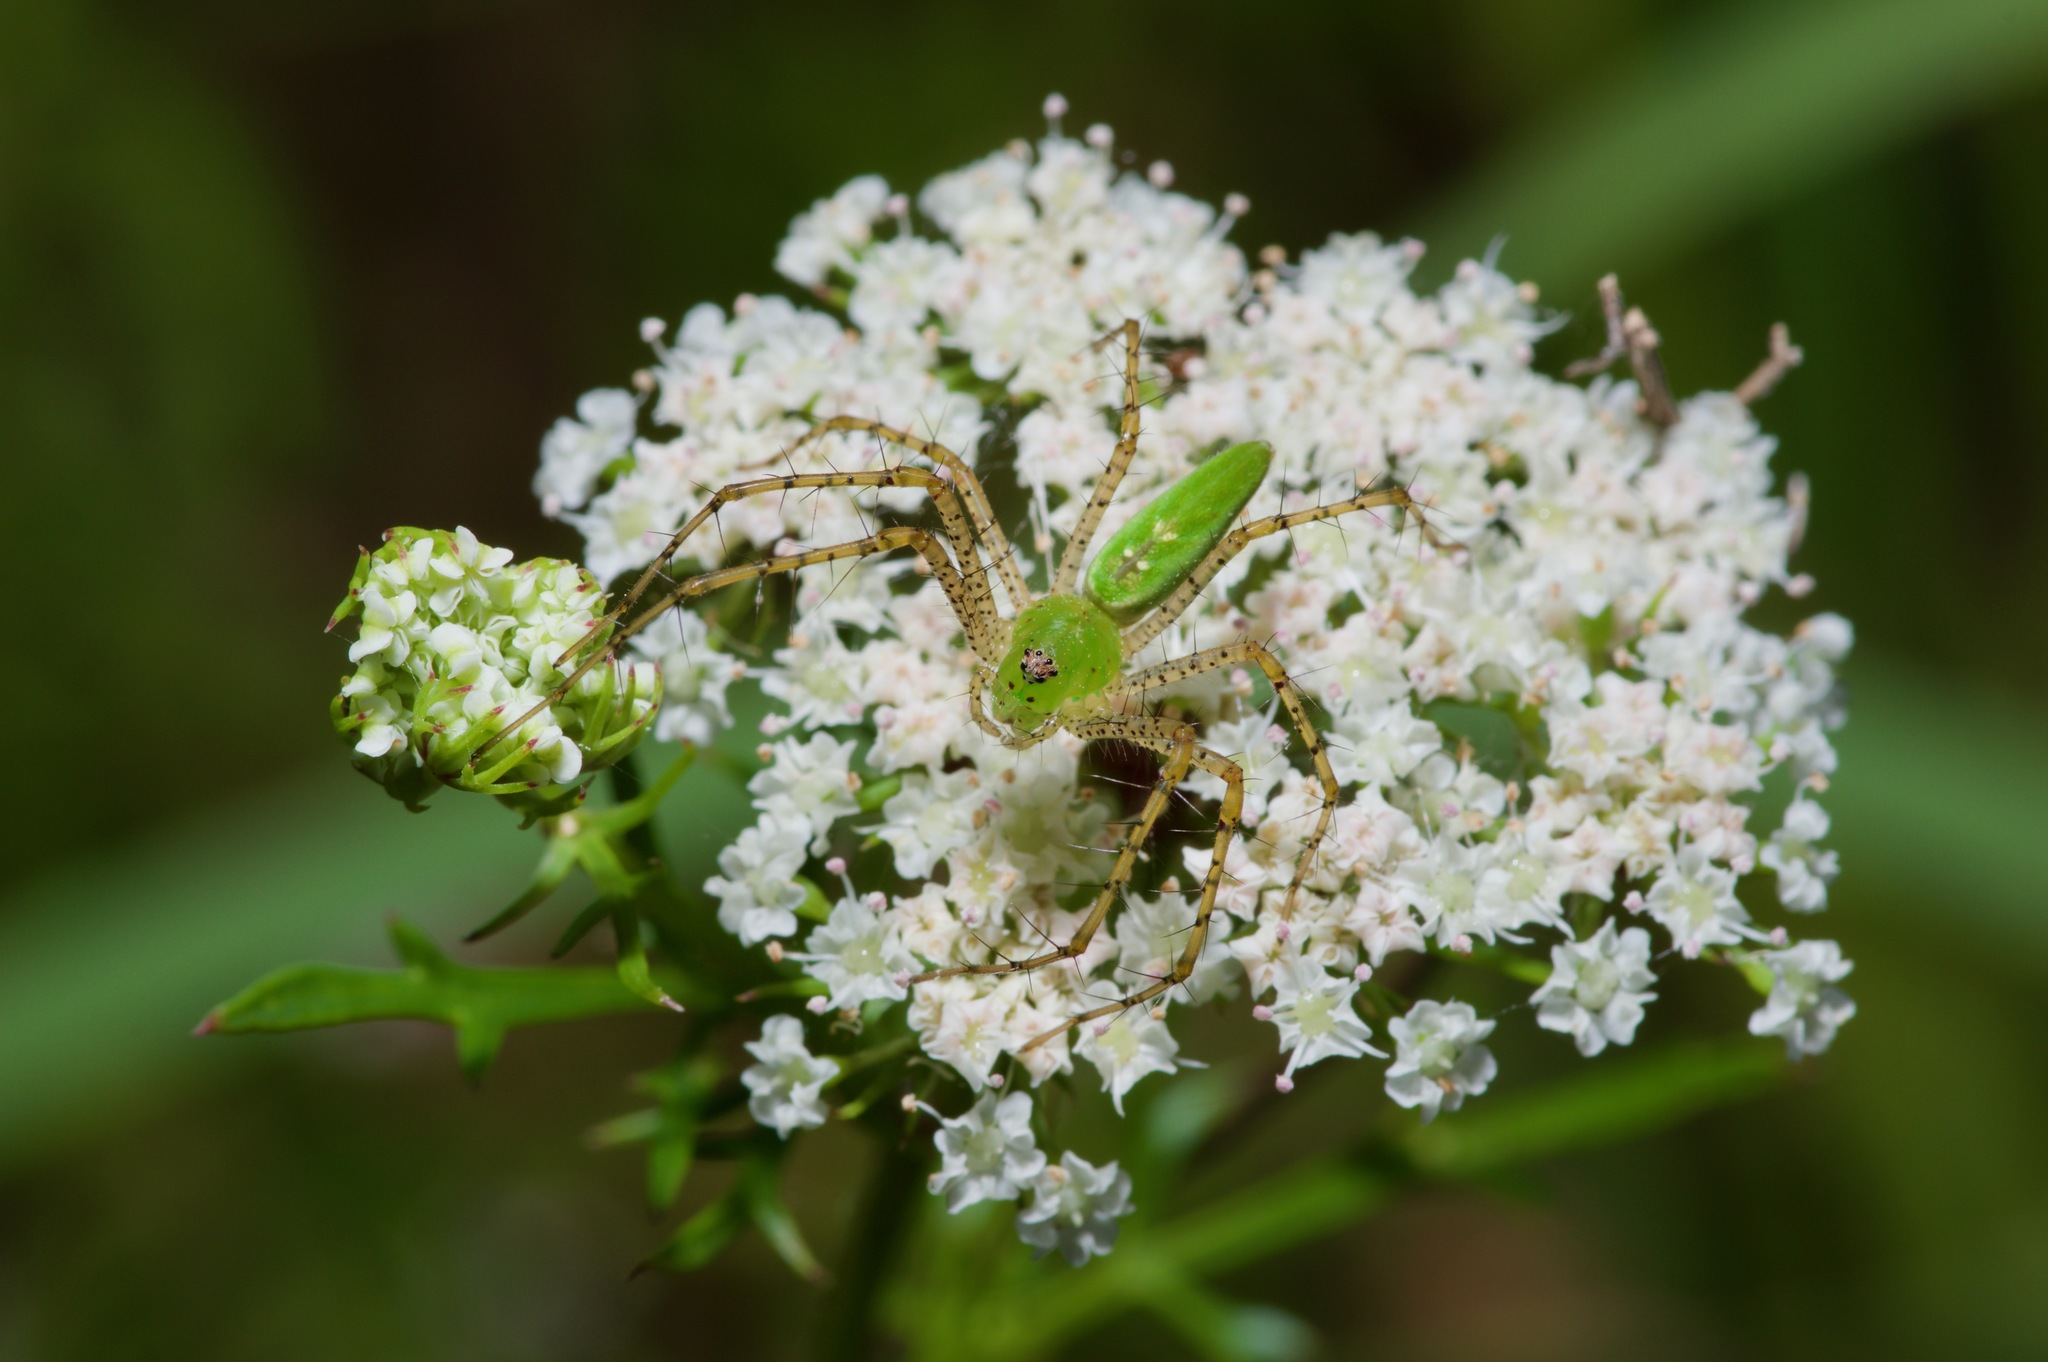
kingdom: Animalia
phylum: Arthropoda
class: Arachnida
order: Araneae
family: Oxyopidae
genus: Peucetia
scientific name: Peucetia viridans
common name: Lynx spiders
